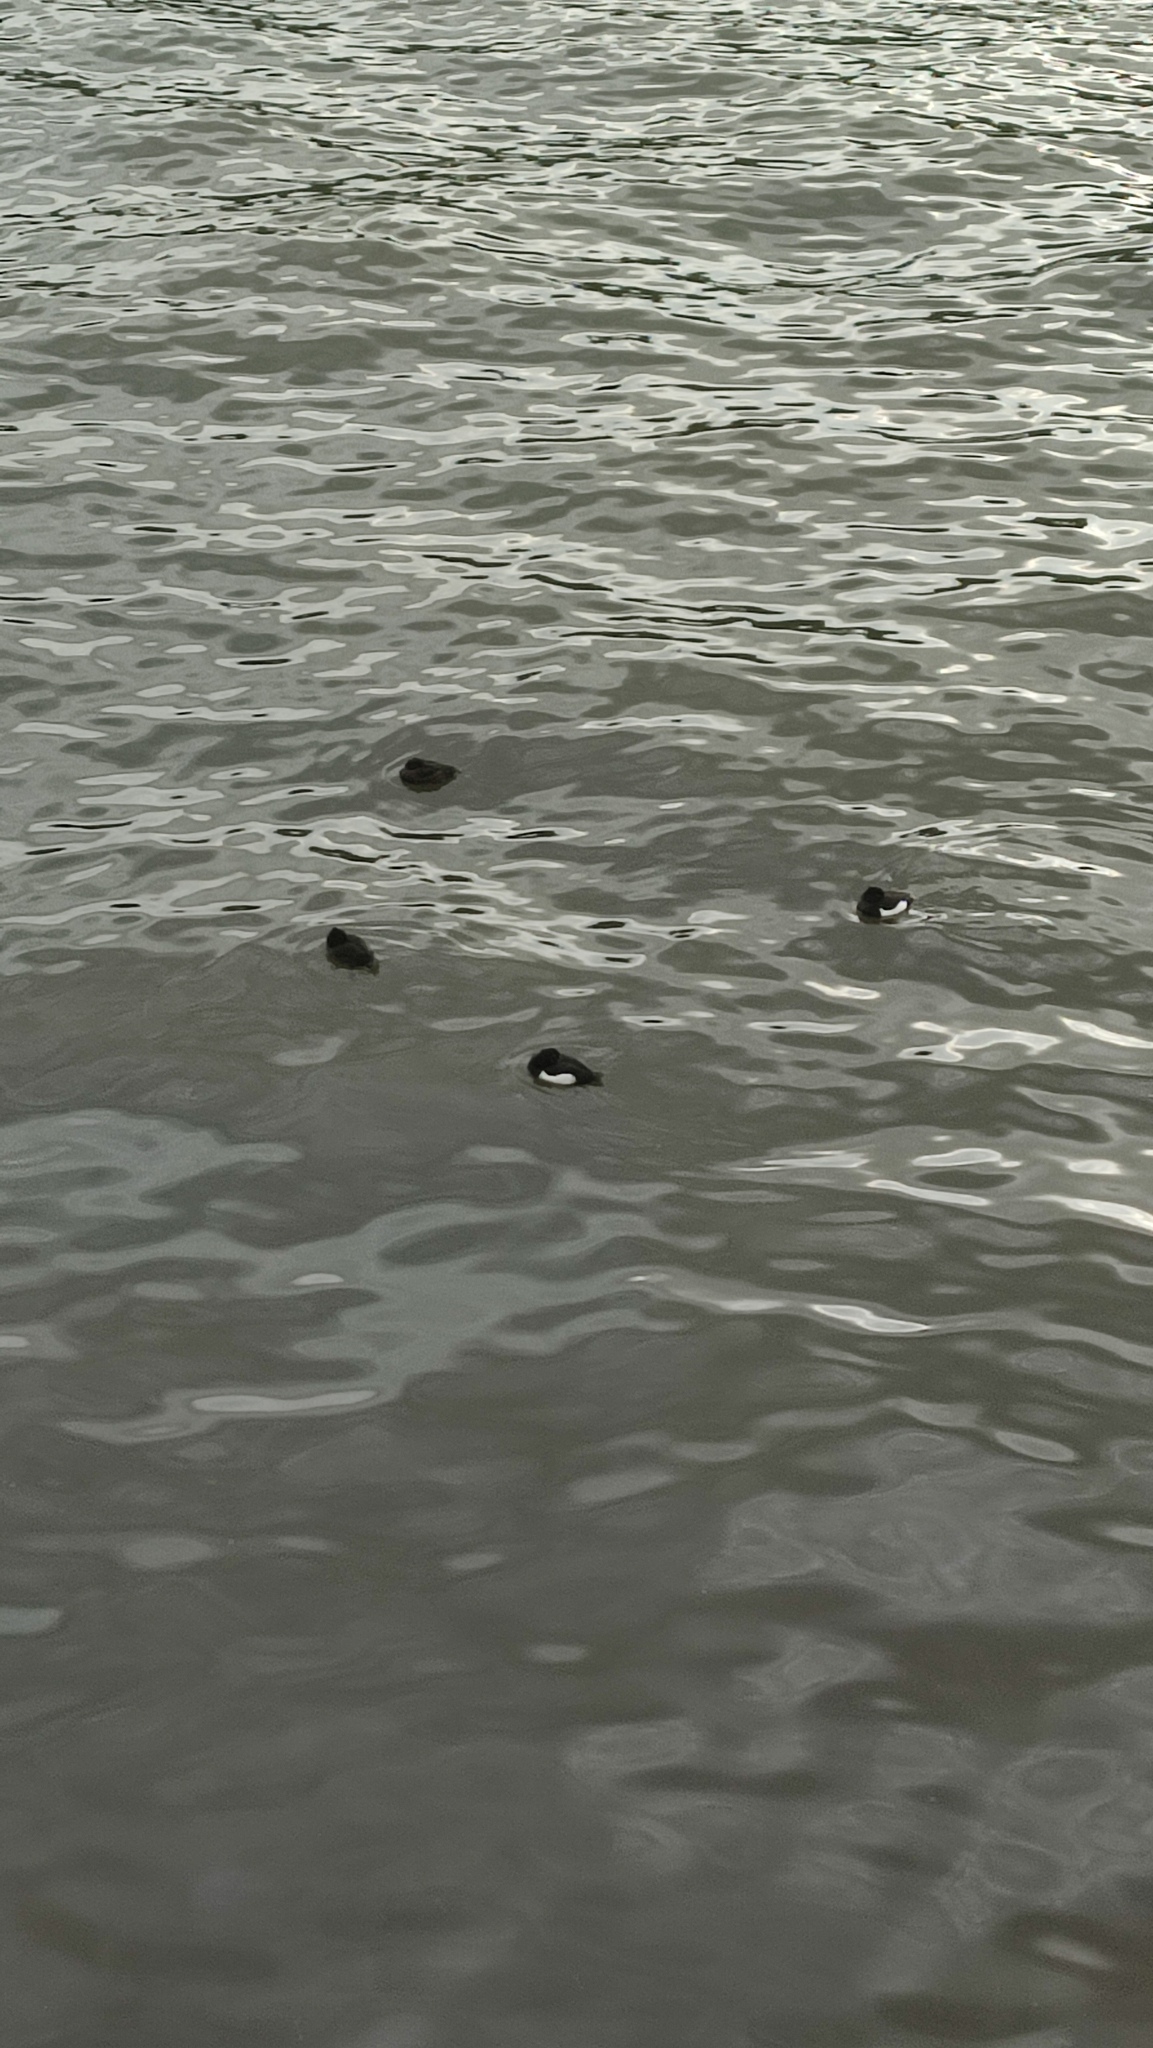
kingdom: Animalia
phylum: Chordata
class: Aves
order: Anseriformes
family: Anatidae
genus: Aythya
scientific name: Aythya fuligula
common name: Tufted duck
